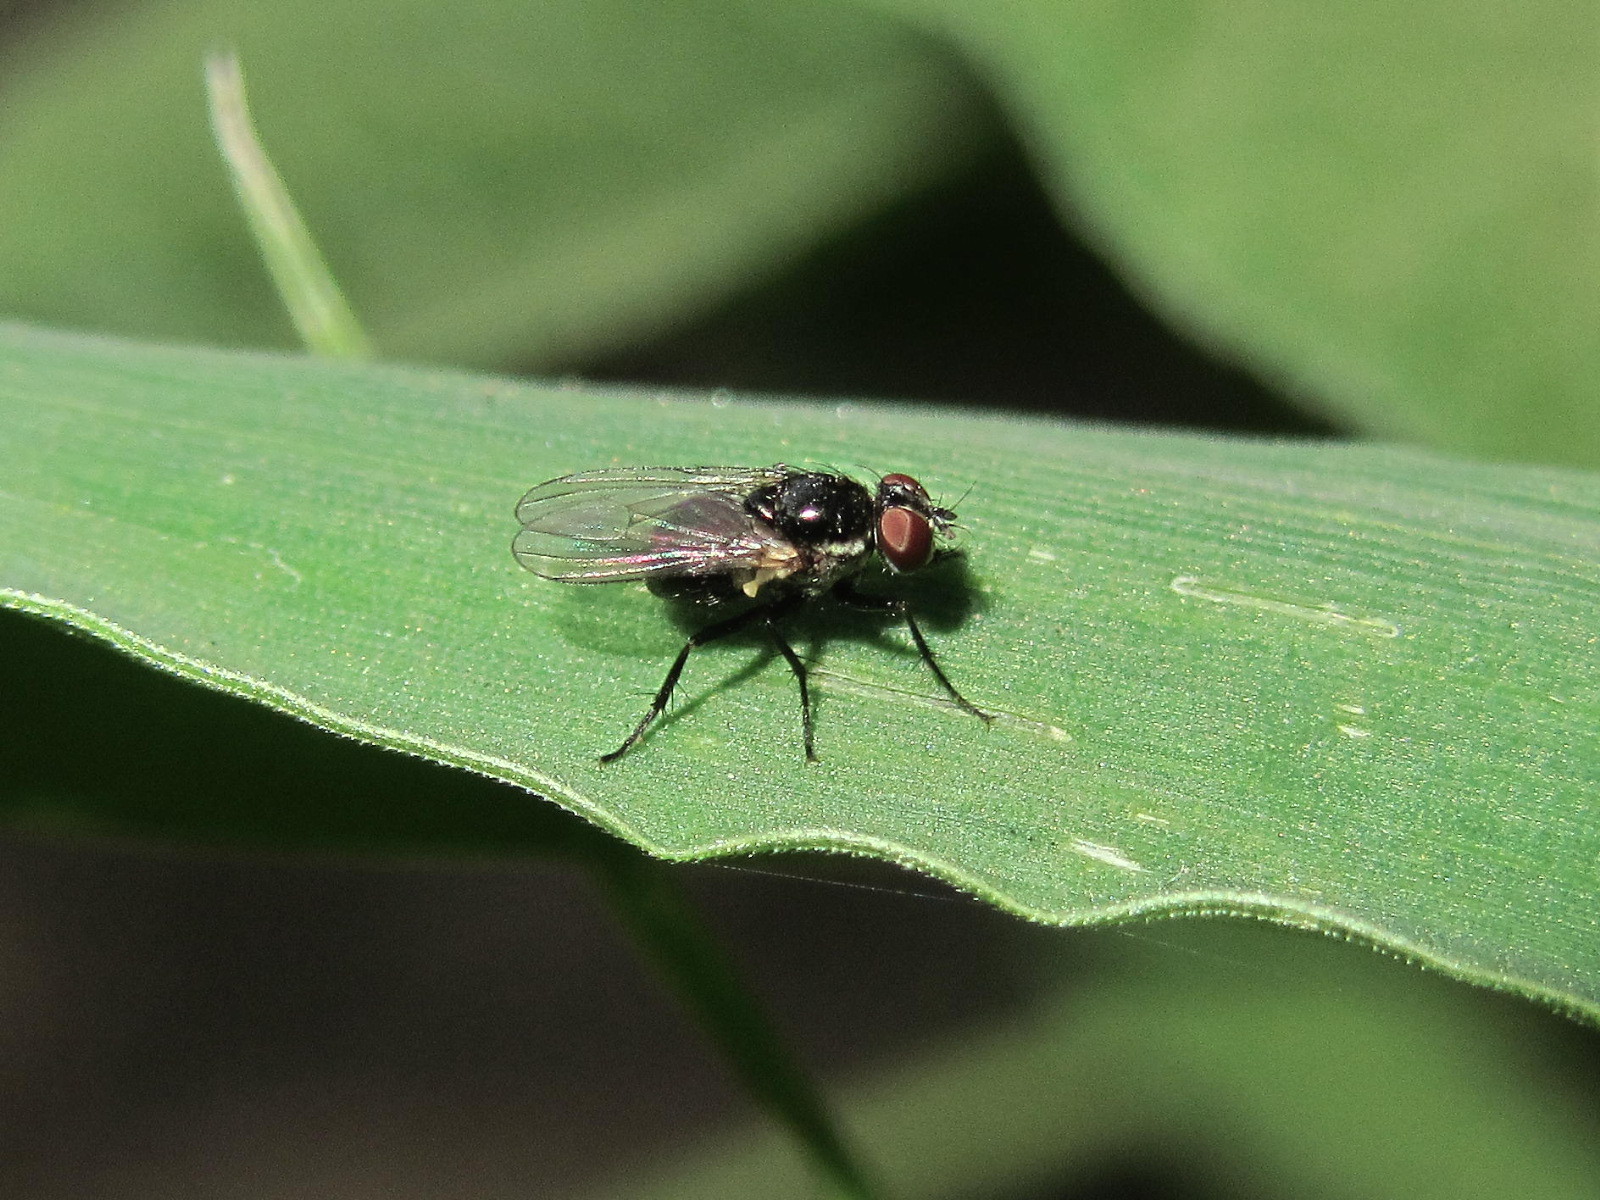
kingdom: Animalia
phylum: Arthropoda
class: Insecta
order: Diptera
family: Muscidae
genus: Coenosia
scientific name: Coenosia atra
